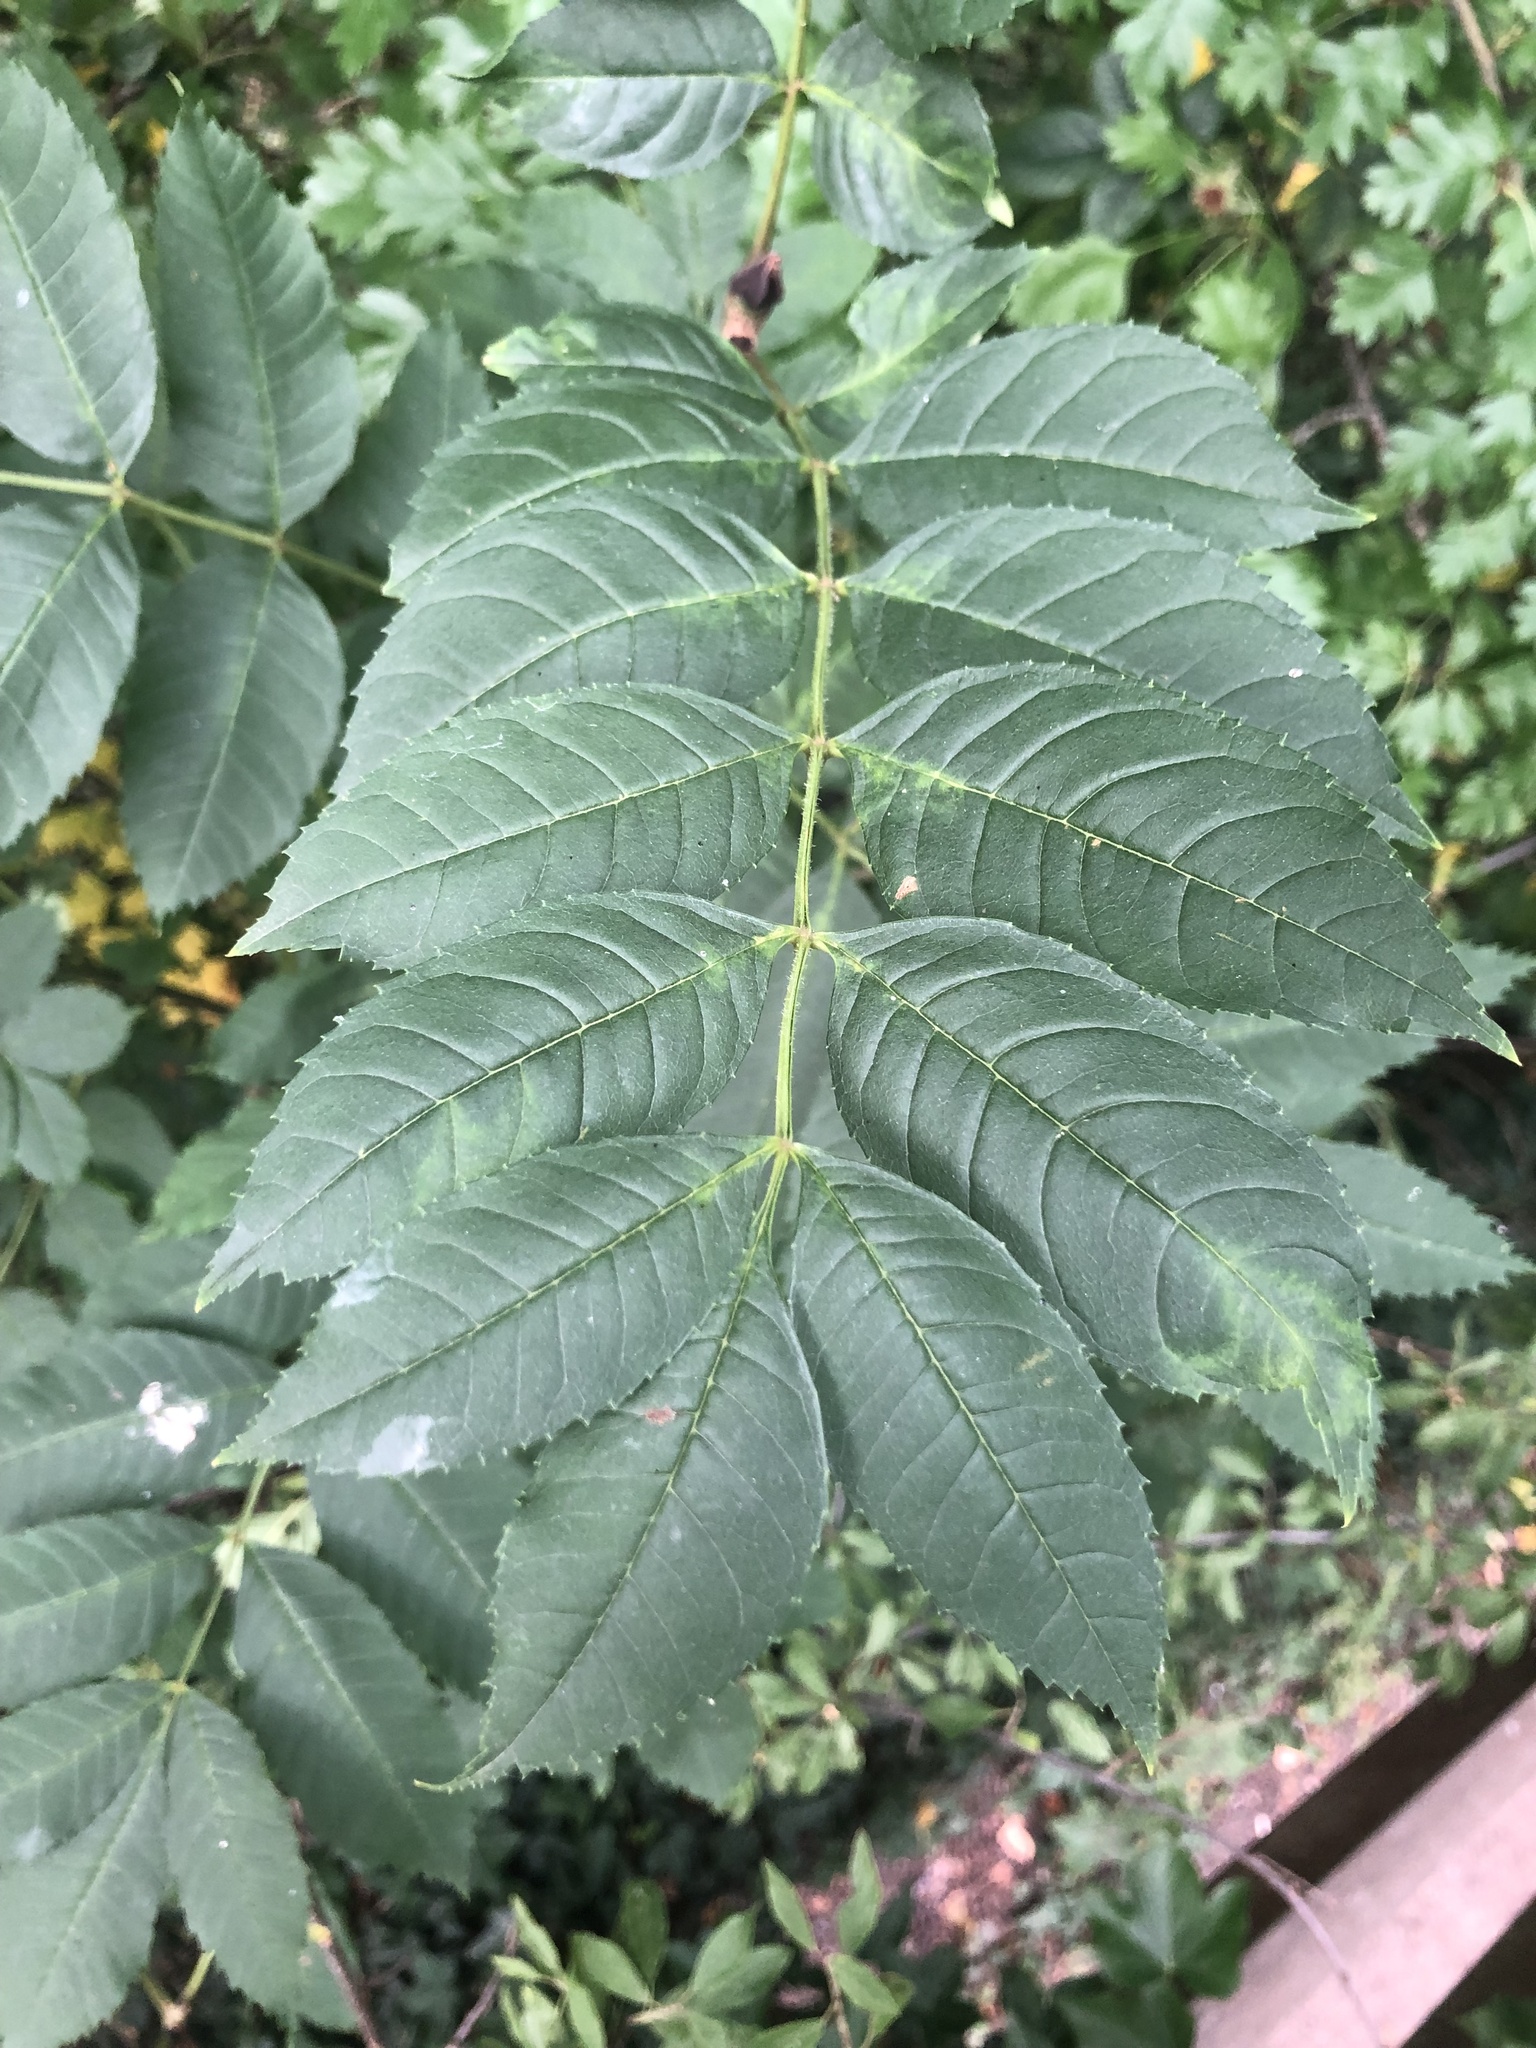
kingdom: Plantae
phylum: Tracheophyta
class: Magnoliopsida
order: Lamiales
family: Oleaceae
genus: Fraxinus
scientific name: Fraxinus excelsior
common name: European ash
